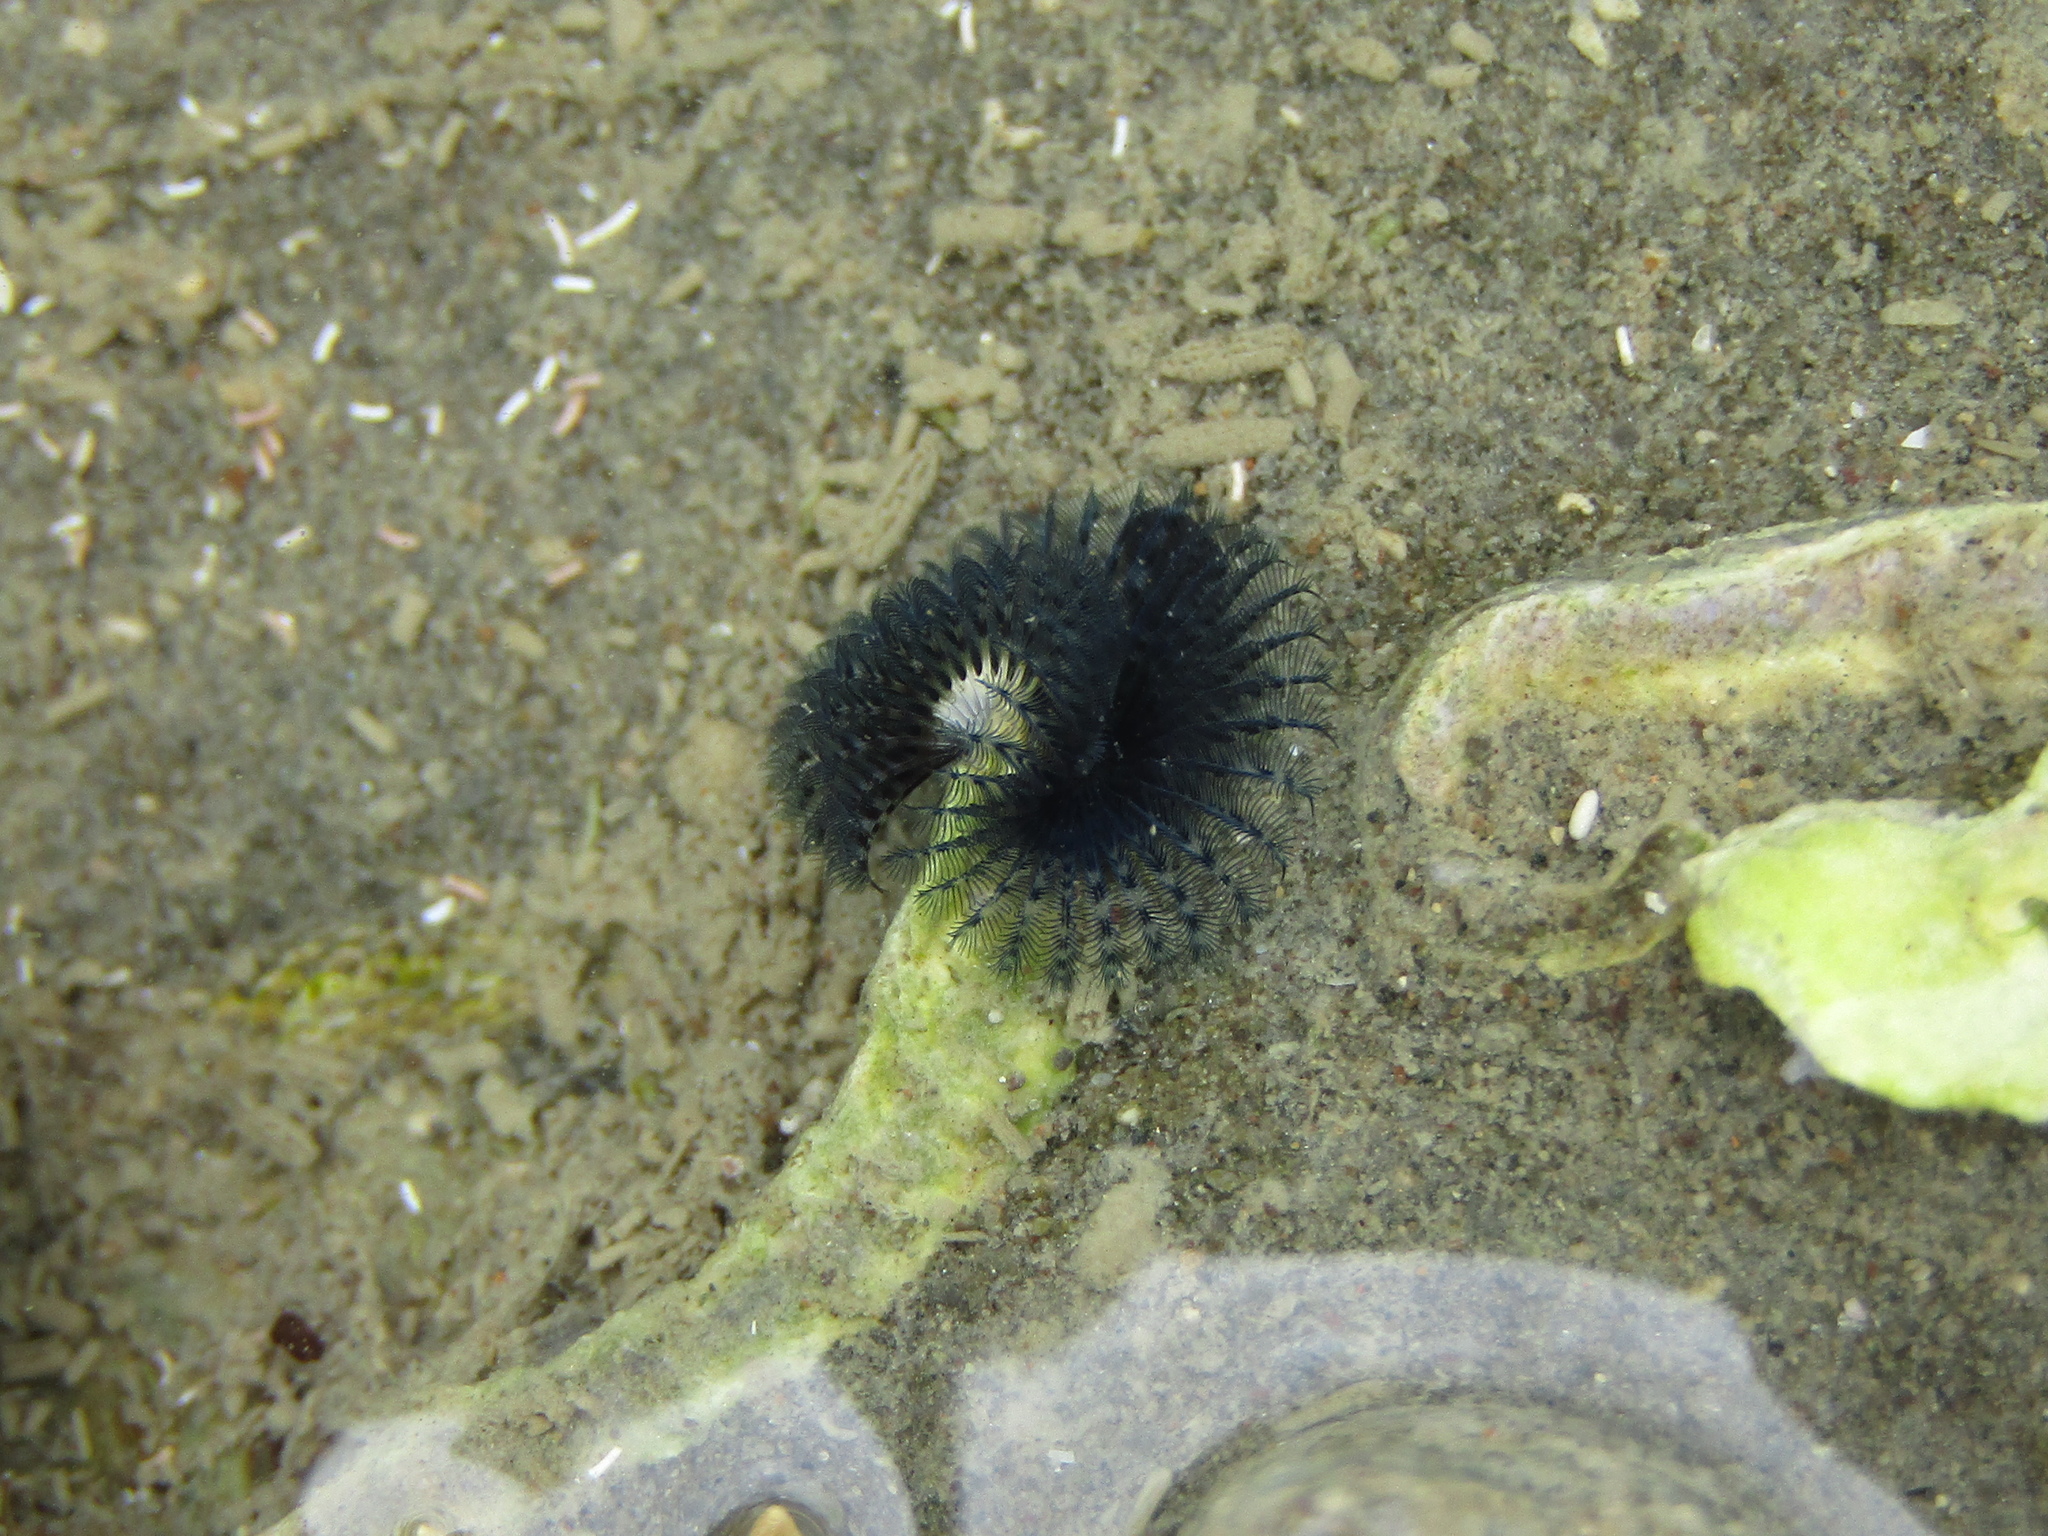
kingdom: Animalia
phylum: Annelida
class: Polychaeta
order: Sabellida
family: Serpulidae
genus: Spirobranchus
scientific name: Spirobranchus cariniferus
